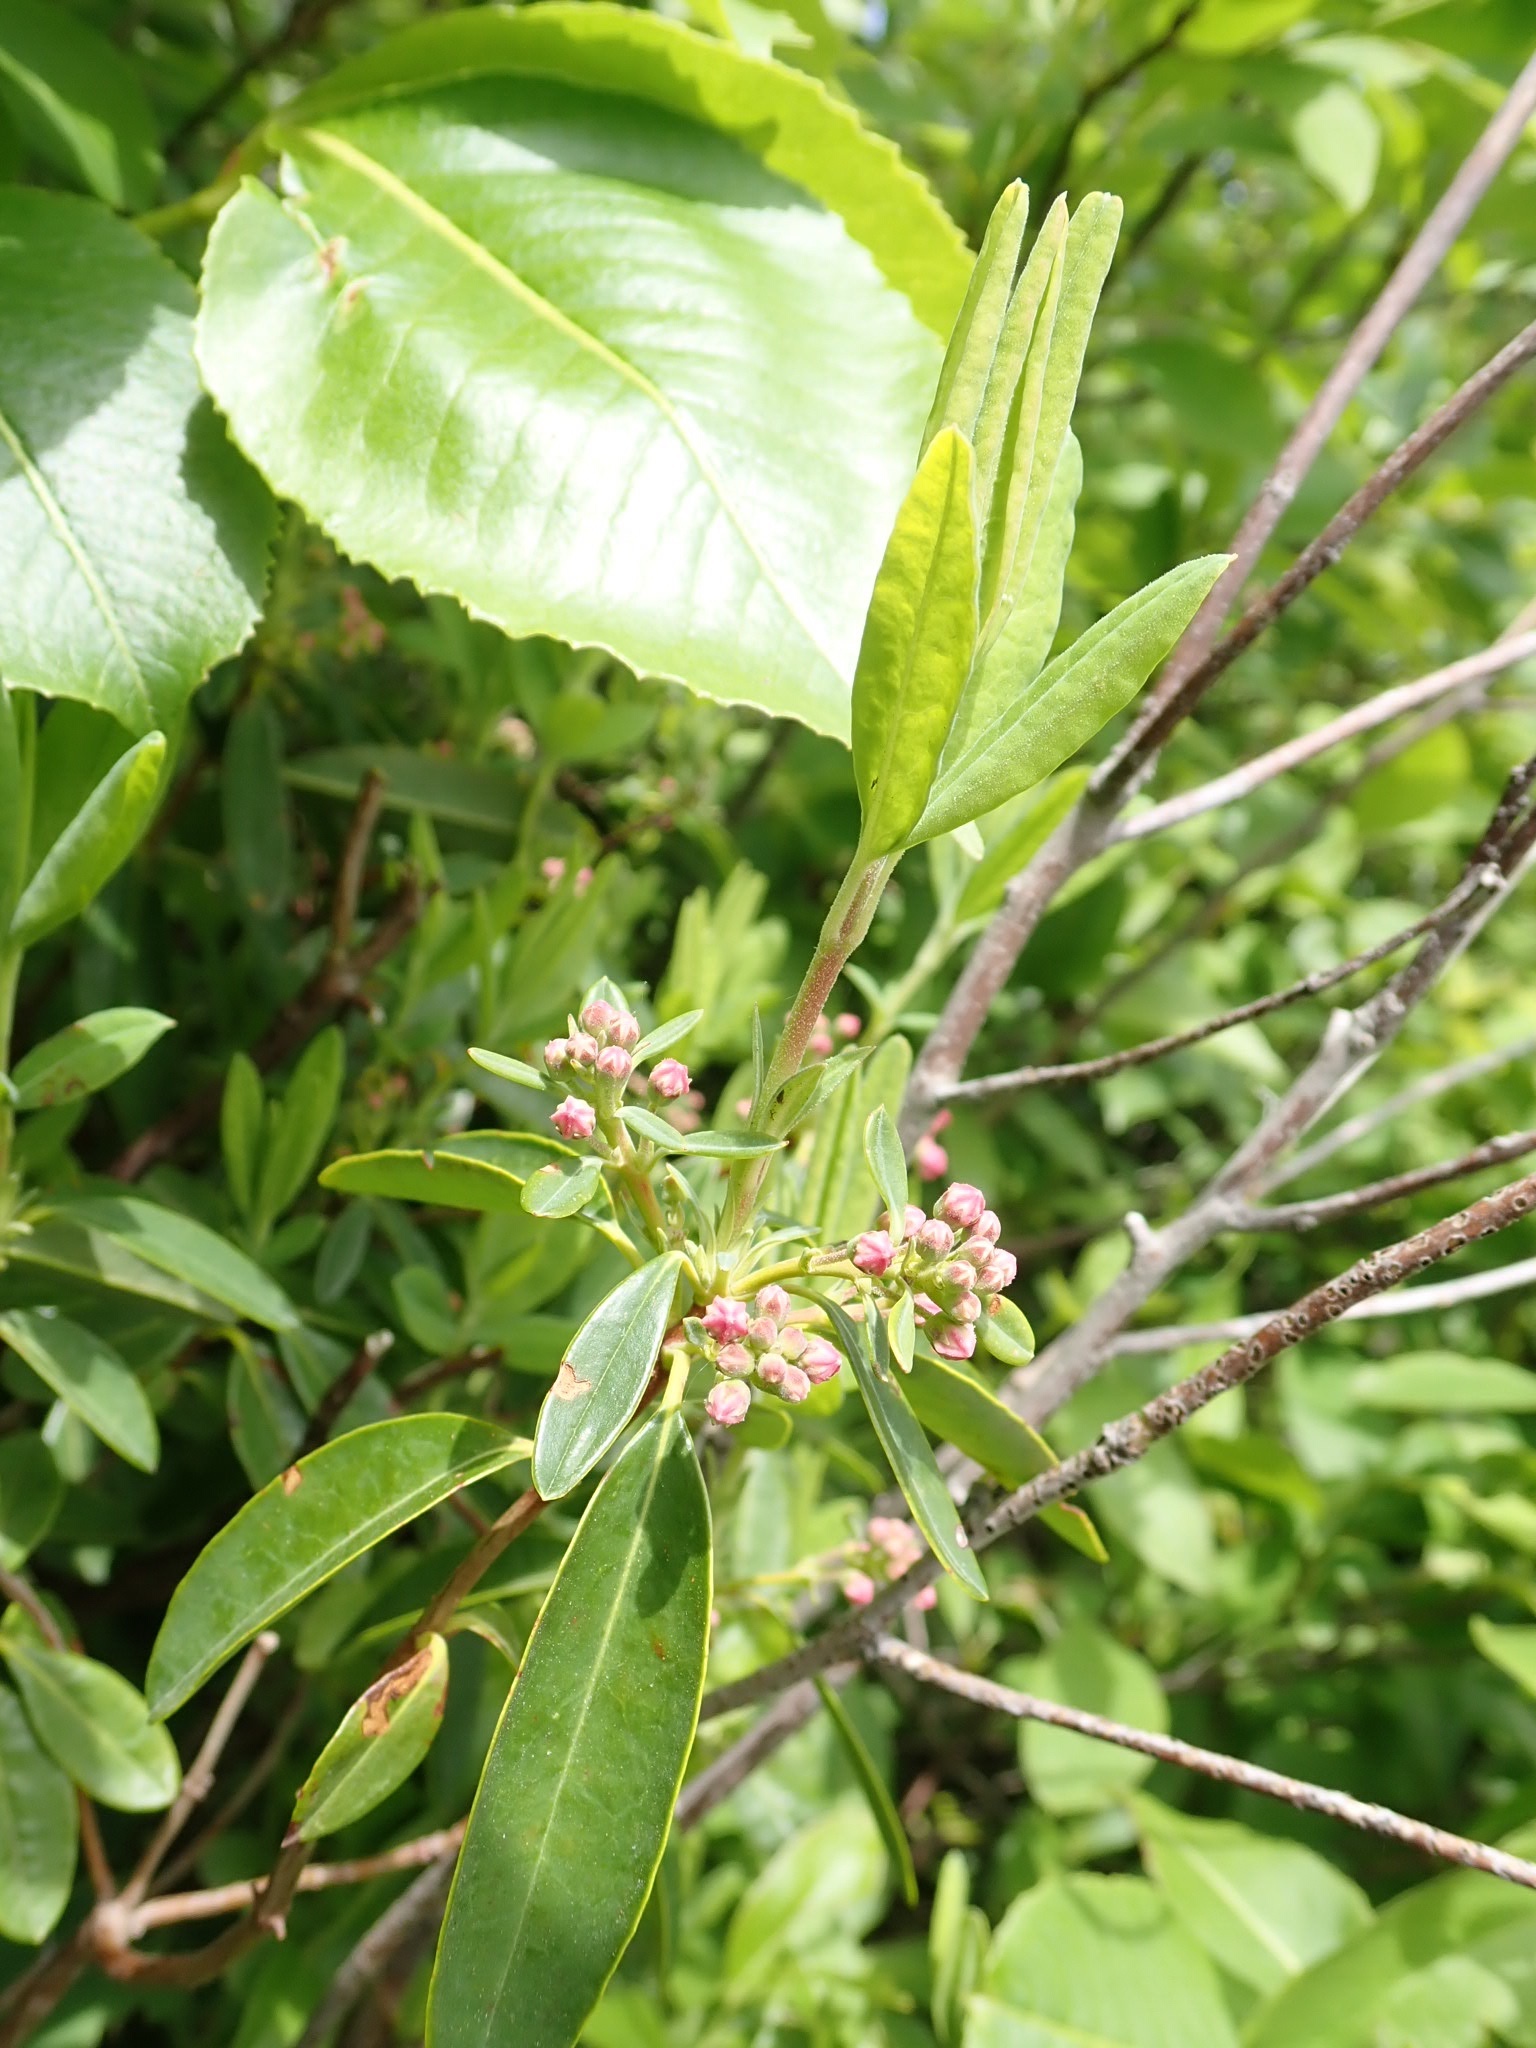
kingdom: Plantae
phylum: Tracheophyta
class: Magnoliopsida
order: Ericales
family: Ericaceae
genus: Kalmia
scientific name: Kalmia angustifolia
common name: Sheep-laurel
